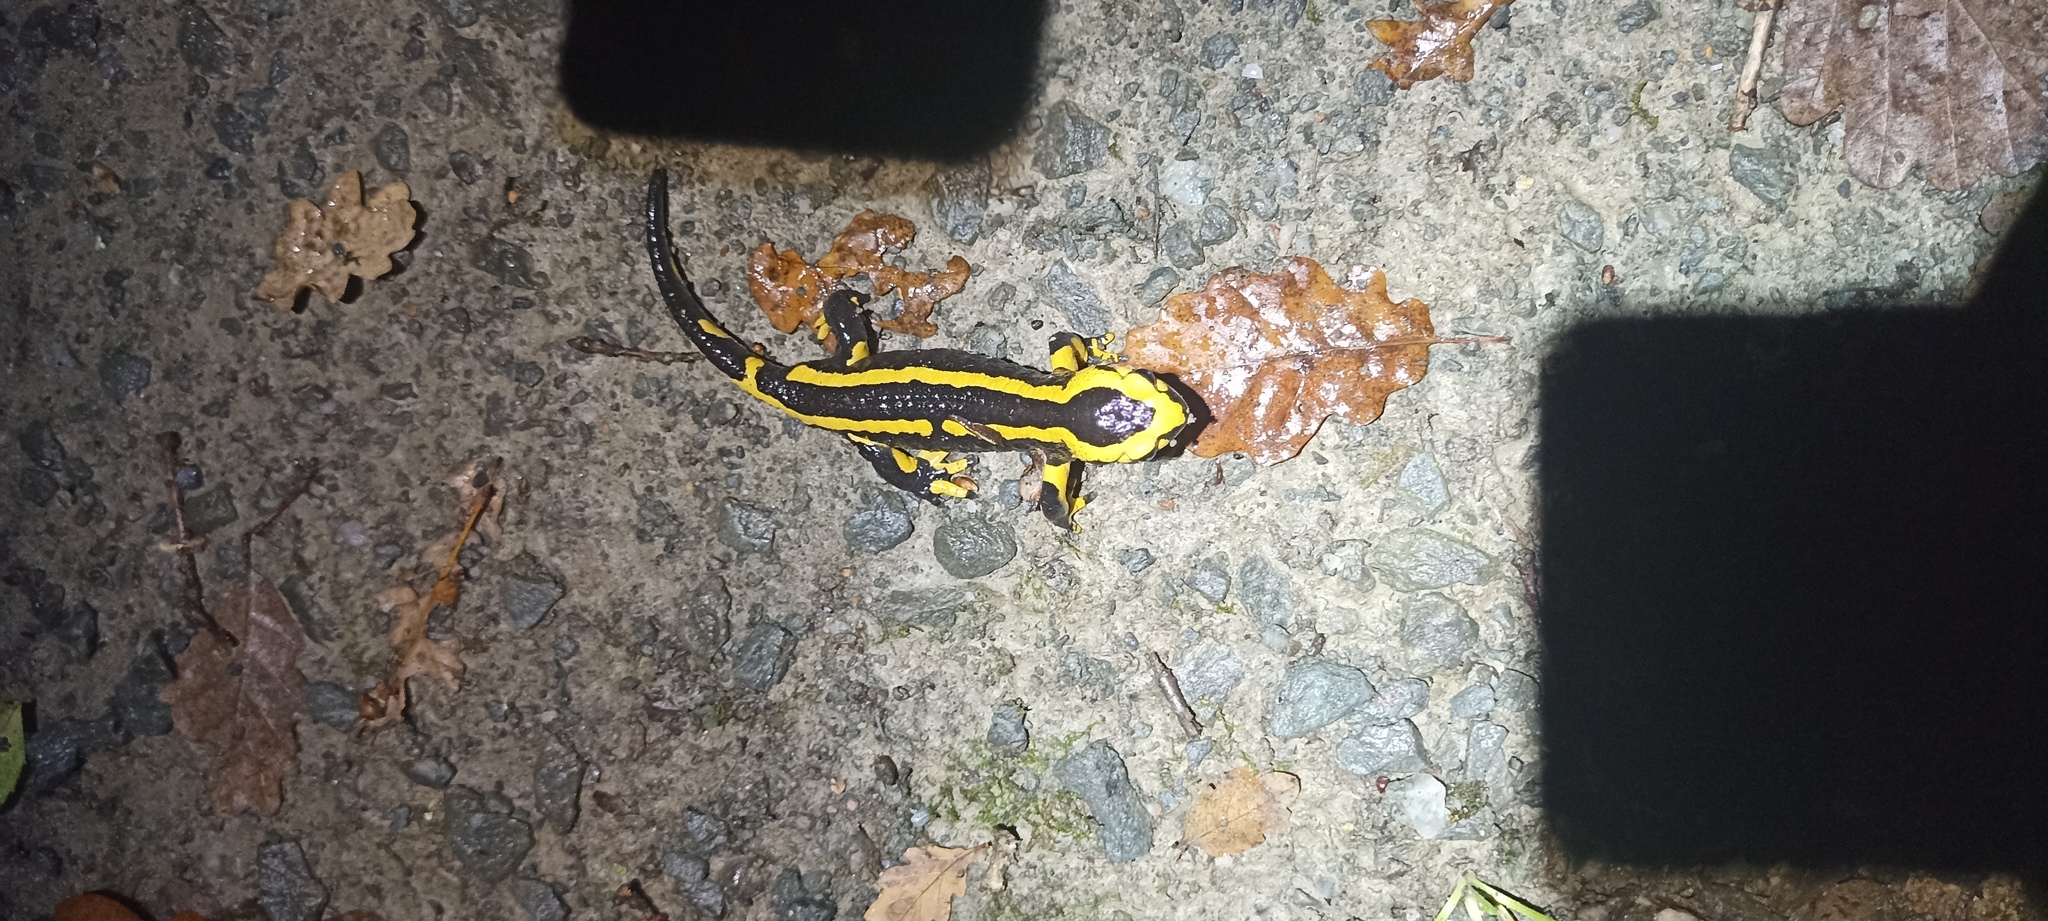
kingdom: Animalia
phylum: Chordata
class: Amphibia
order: Caudata
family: Salamandridae
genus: Salamandra
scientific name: Salamandra salamandra
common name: Fire salamander
